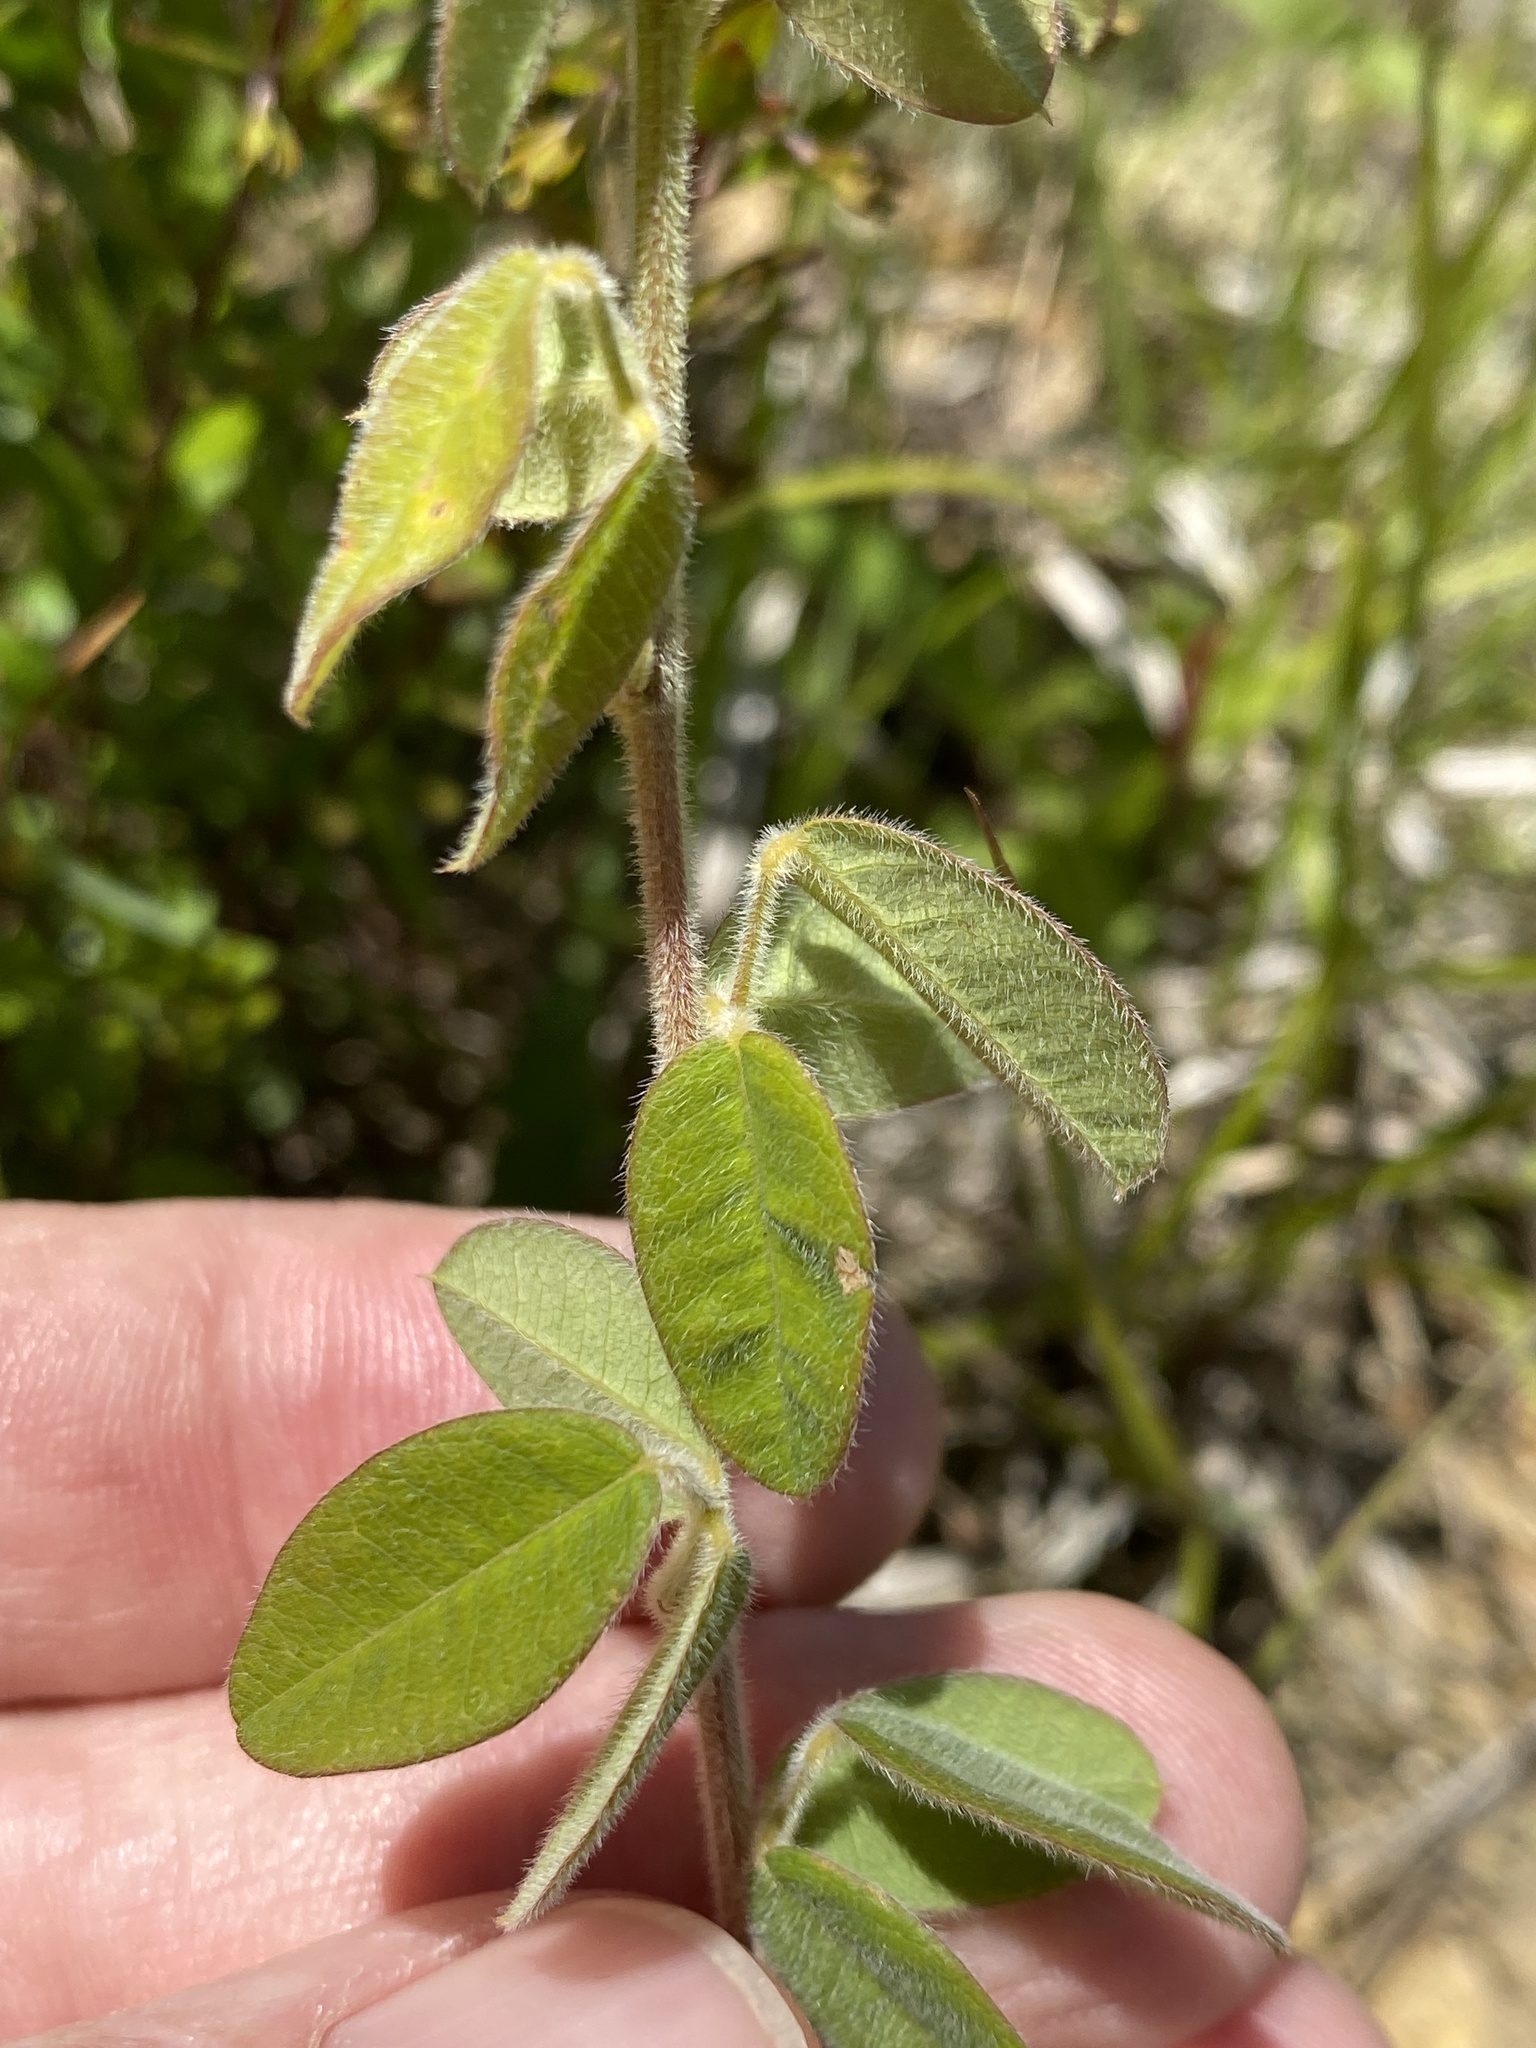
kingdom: Plantae
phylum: Tracheophyta
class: Magnoliopsida
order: Fabales
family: Fabaceae
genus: Lespedeza
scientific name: Lespedeza hirta
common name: Hairy lespedeza
